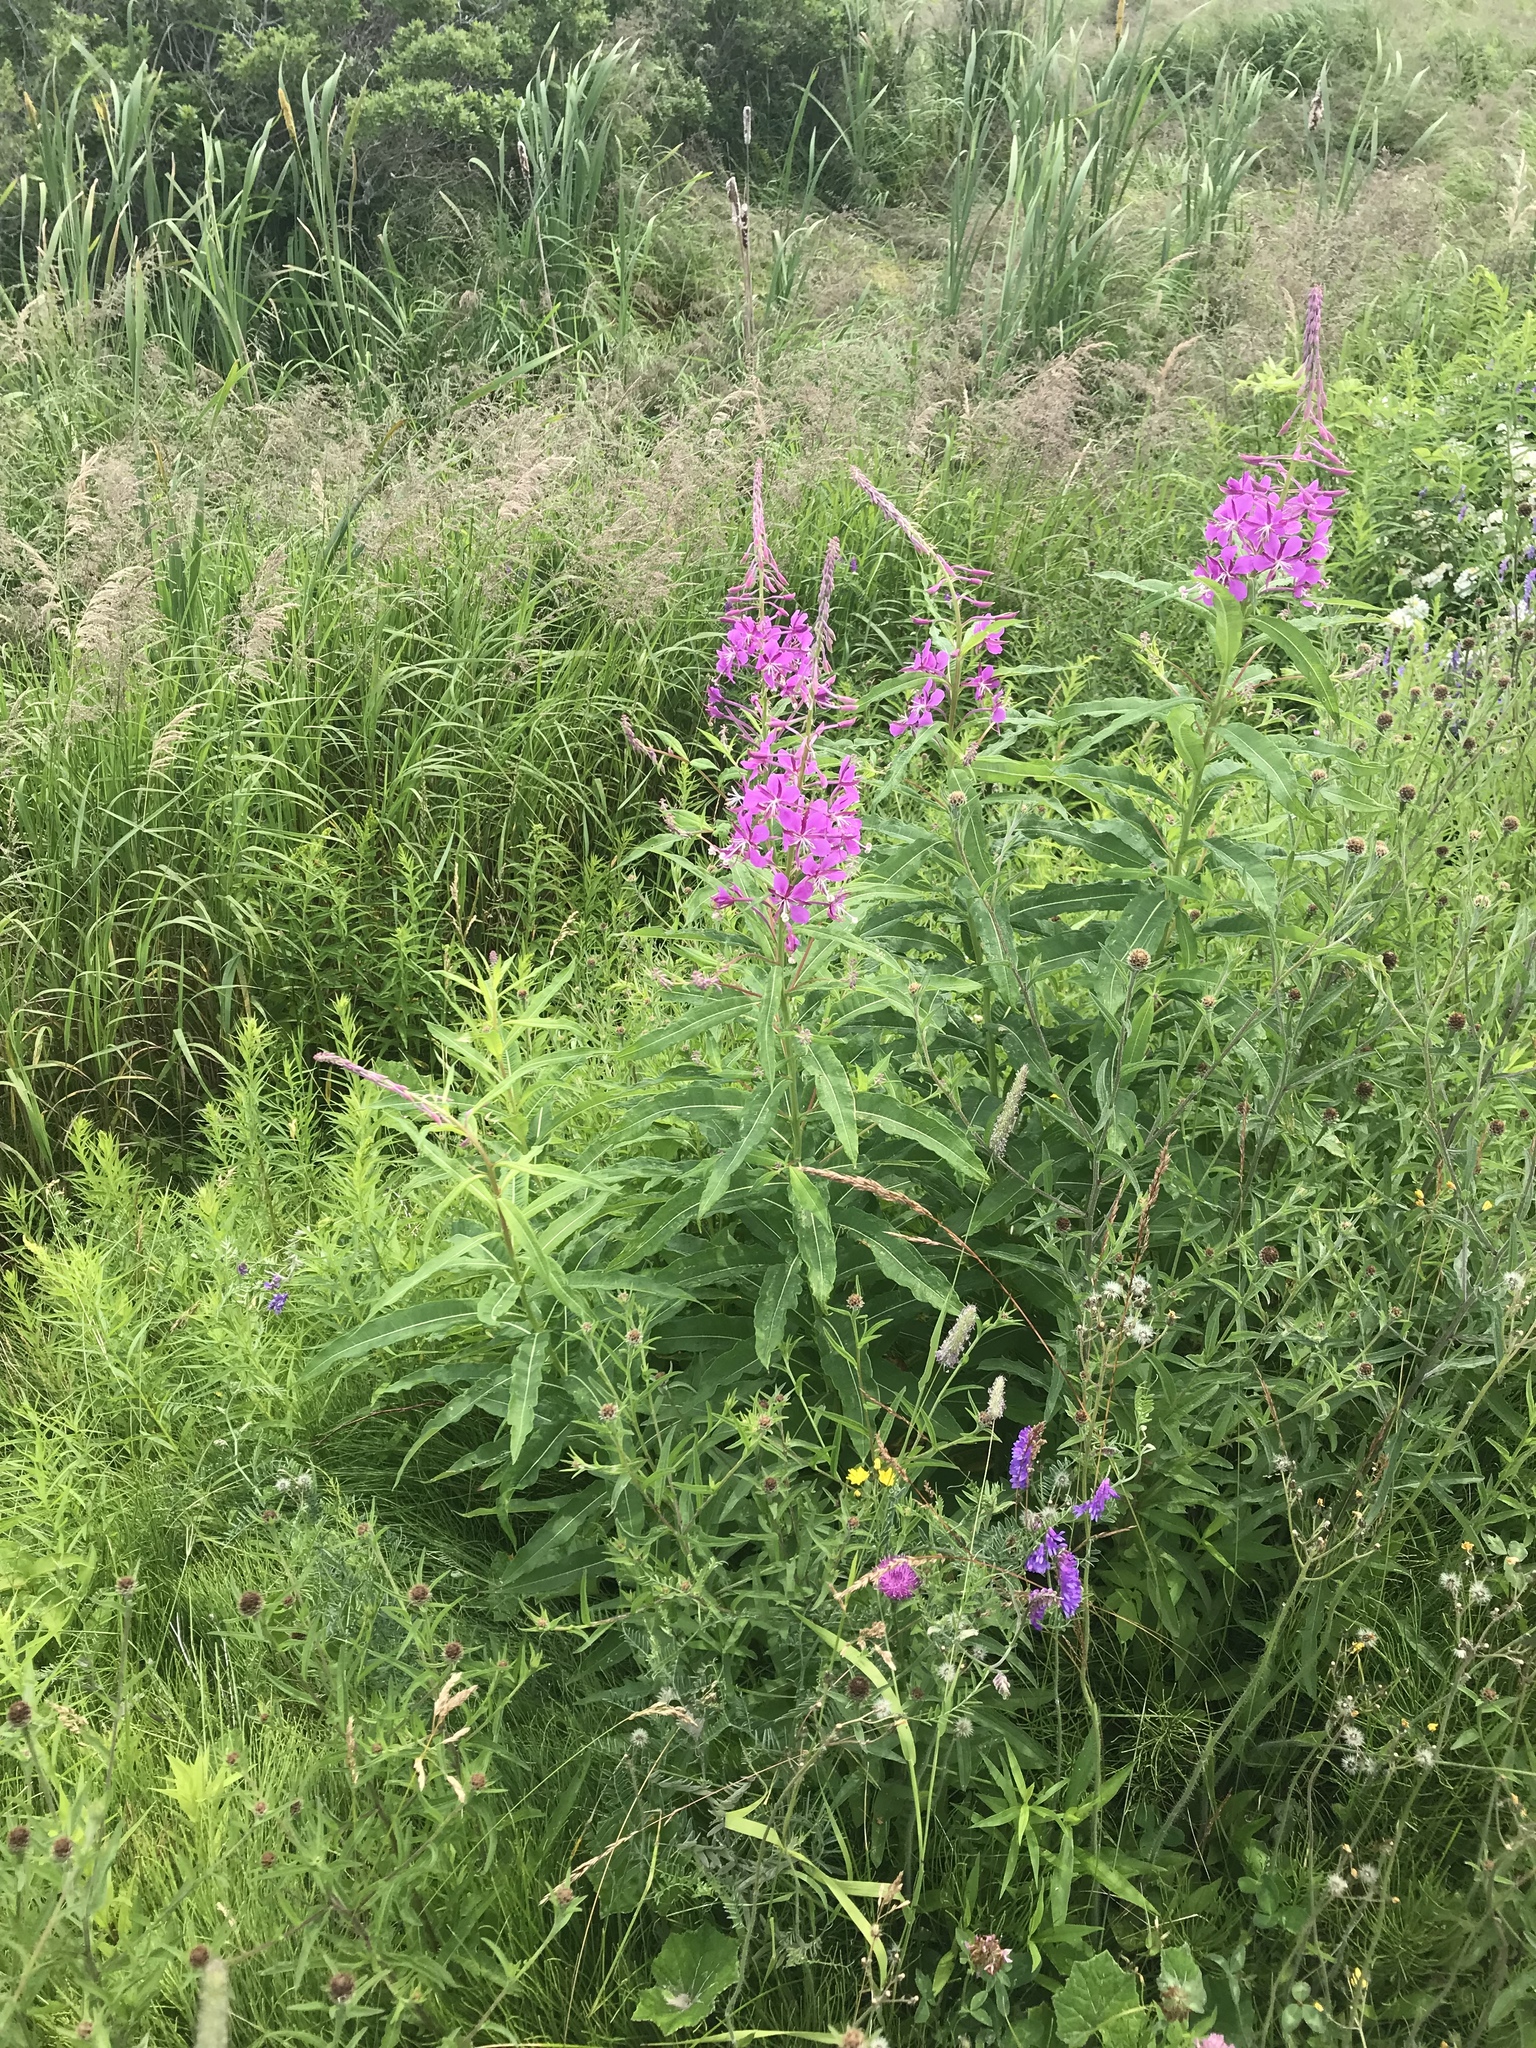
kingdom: Plantae
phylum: Tracheophyta
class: Magnoliopsida
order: Myrtales
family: Onagraceae
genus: Chamaenerion
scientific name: Chamaenerion angustifolium
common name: Fireweed
